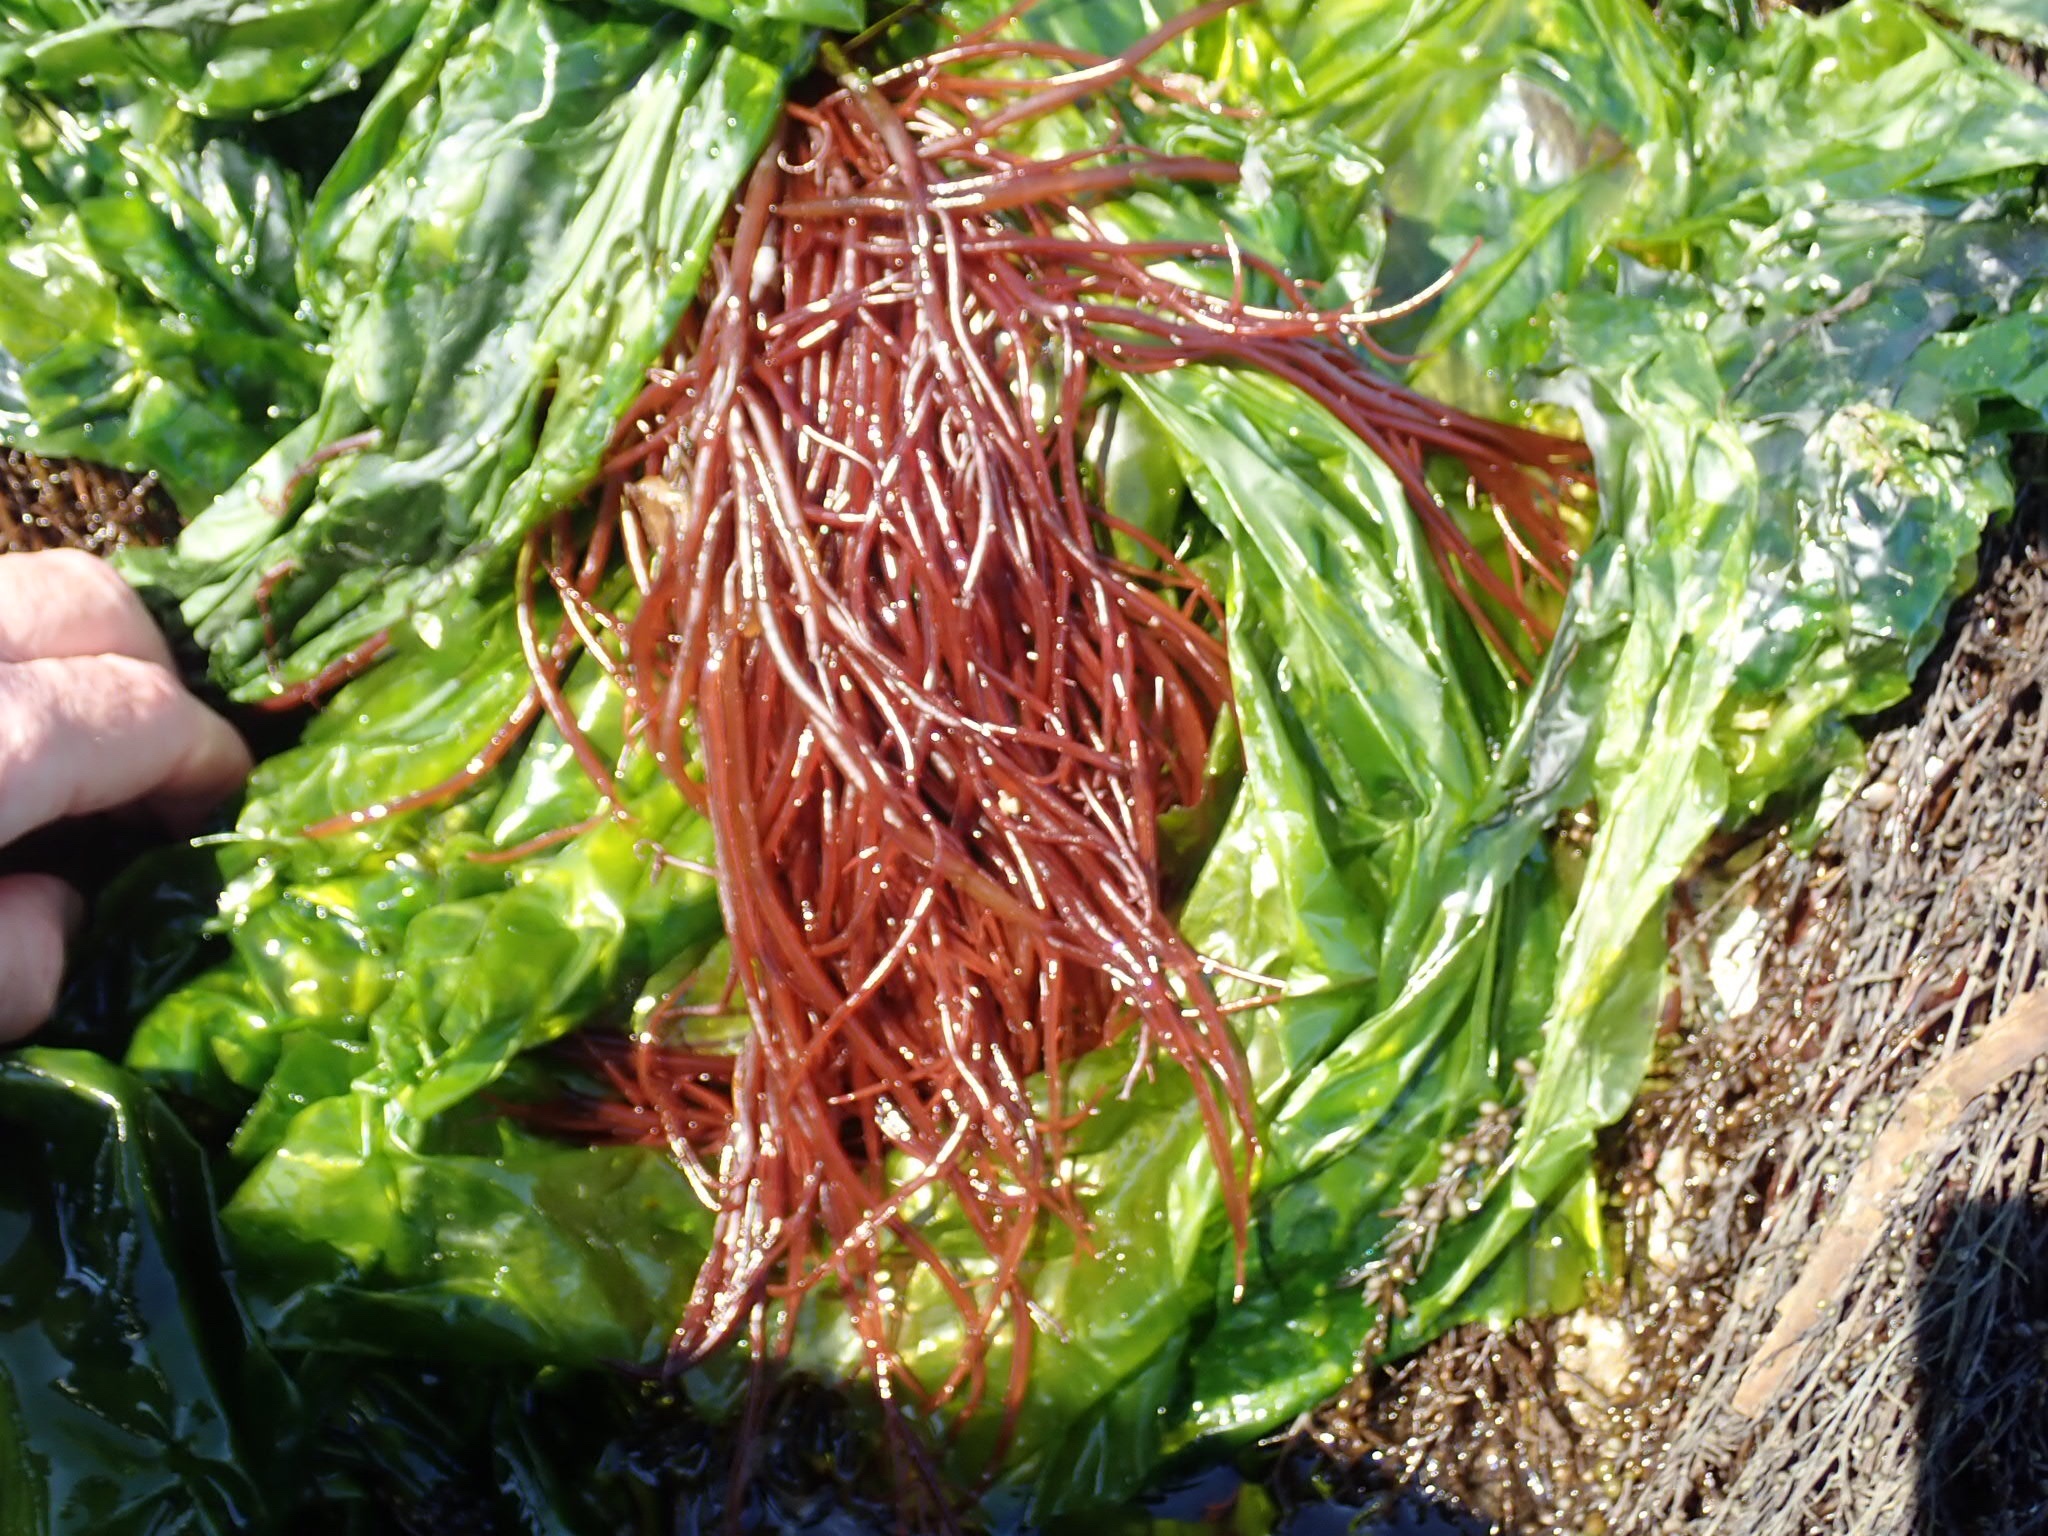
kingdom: Plantae
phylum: Rhodophyta
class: Florideophyceae
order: Gigartinales
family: Solieriaceae
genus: Sarcodiotheca
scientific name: Sarcodiotheca gaudichaudii
